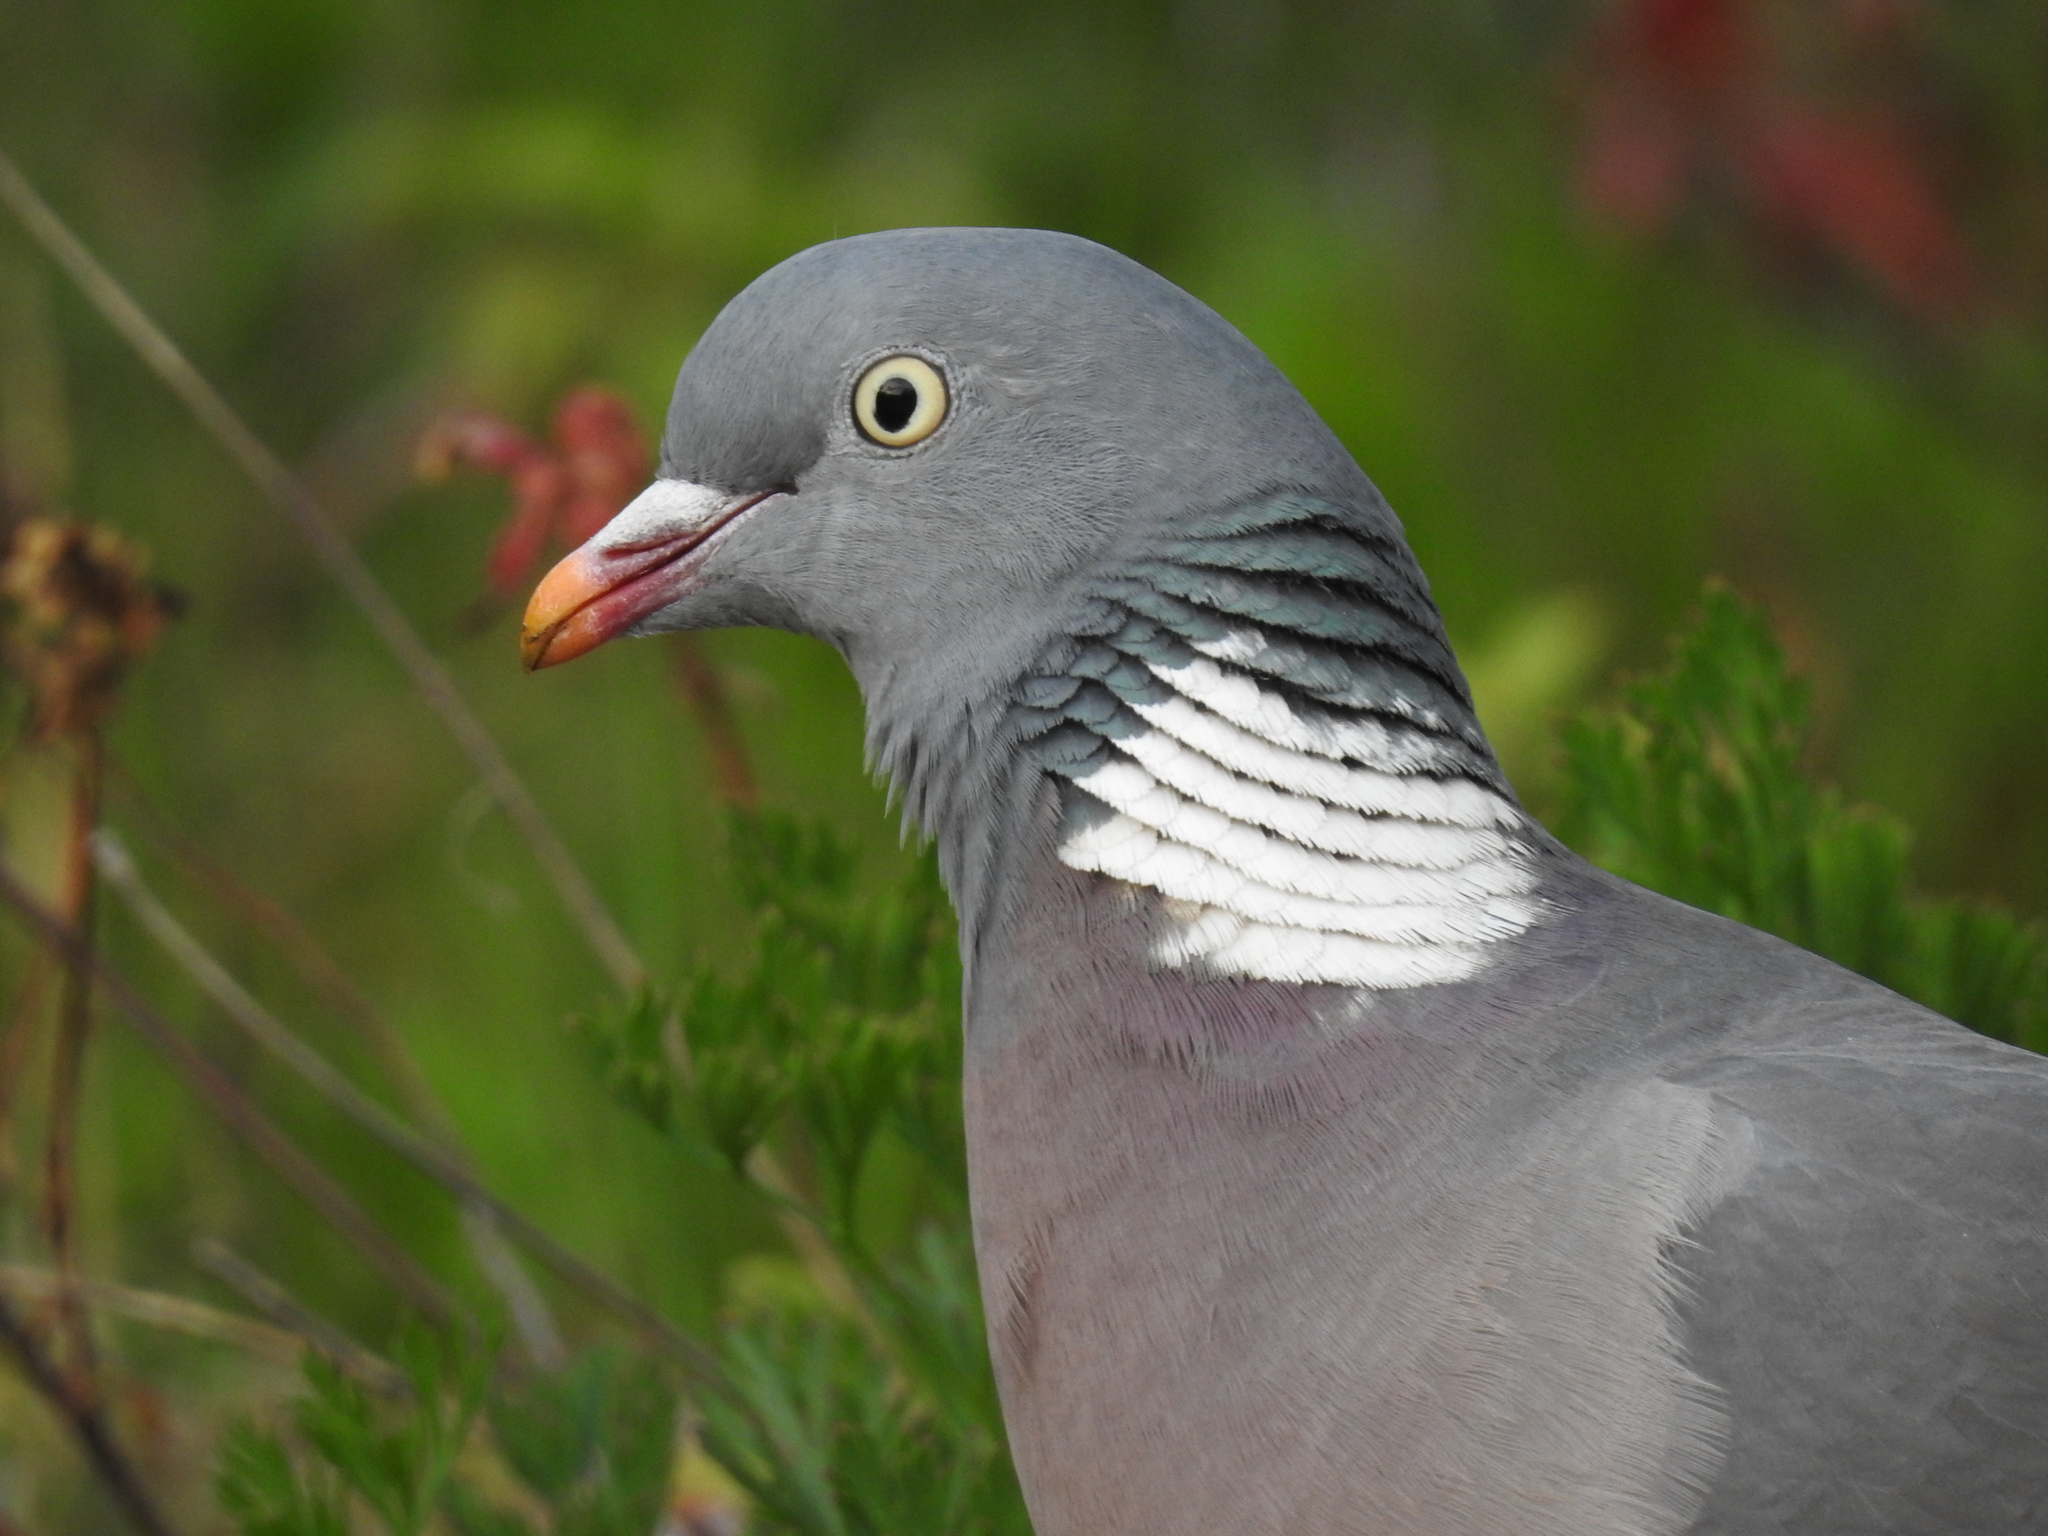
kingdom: Animalia
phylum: Chordata
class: Aves
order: Columbiformes
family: Columbidae
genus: Columba
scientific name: Columba palumbus
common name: Common wood pigeon
